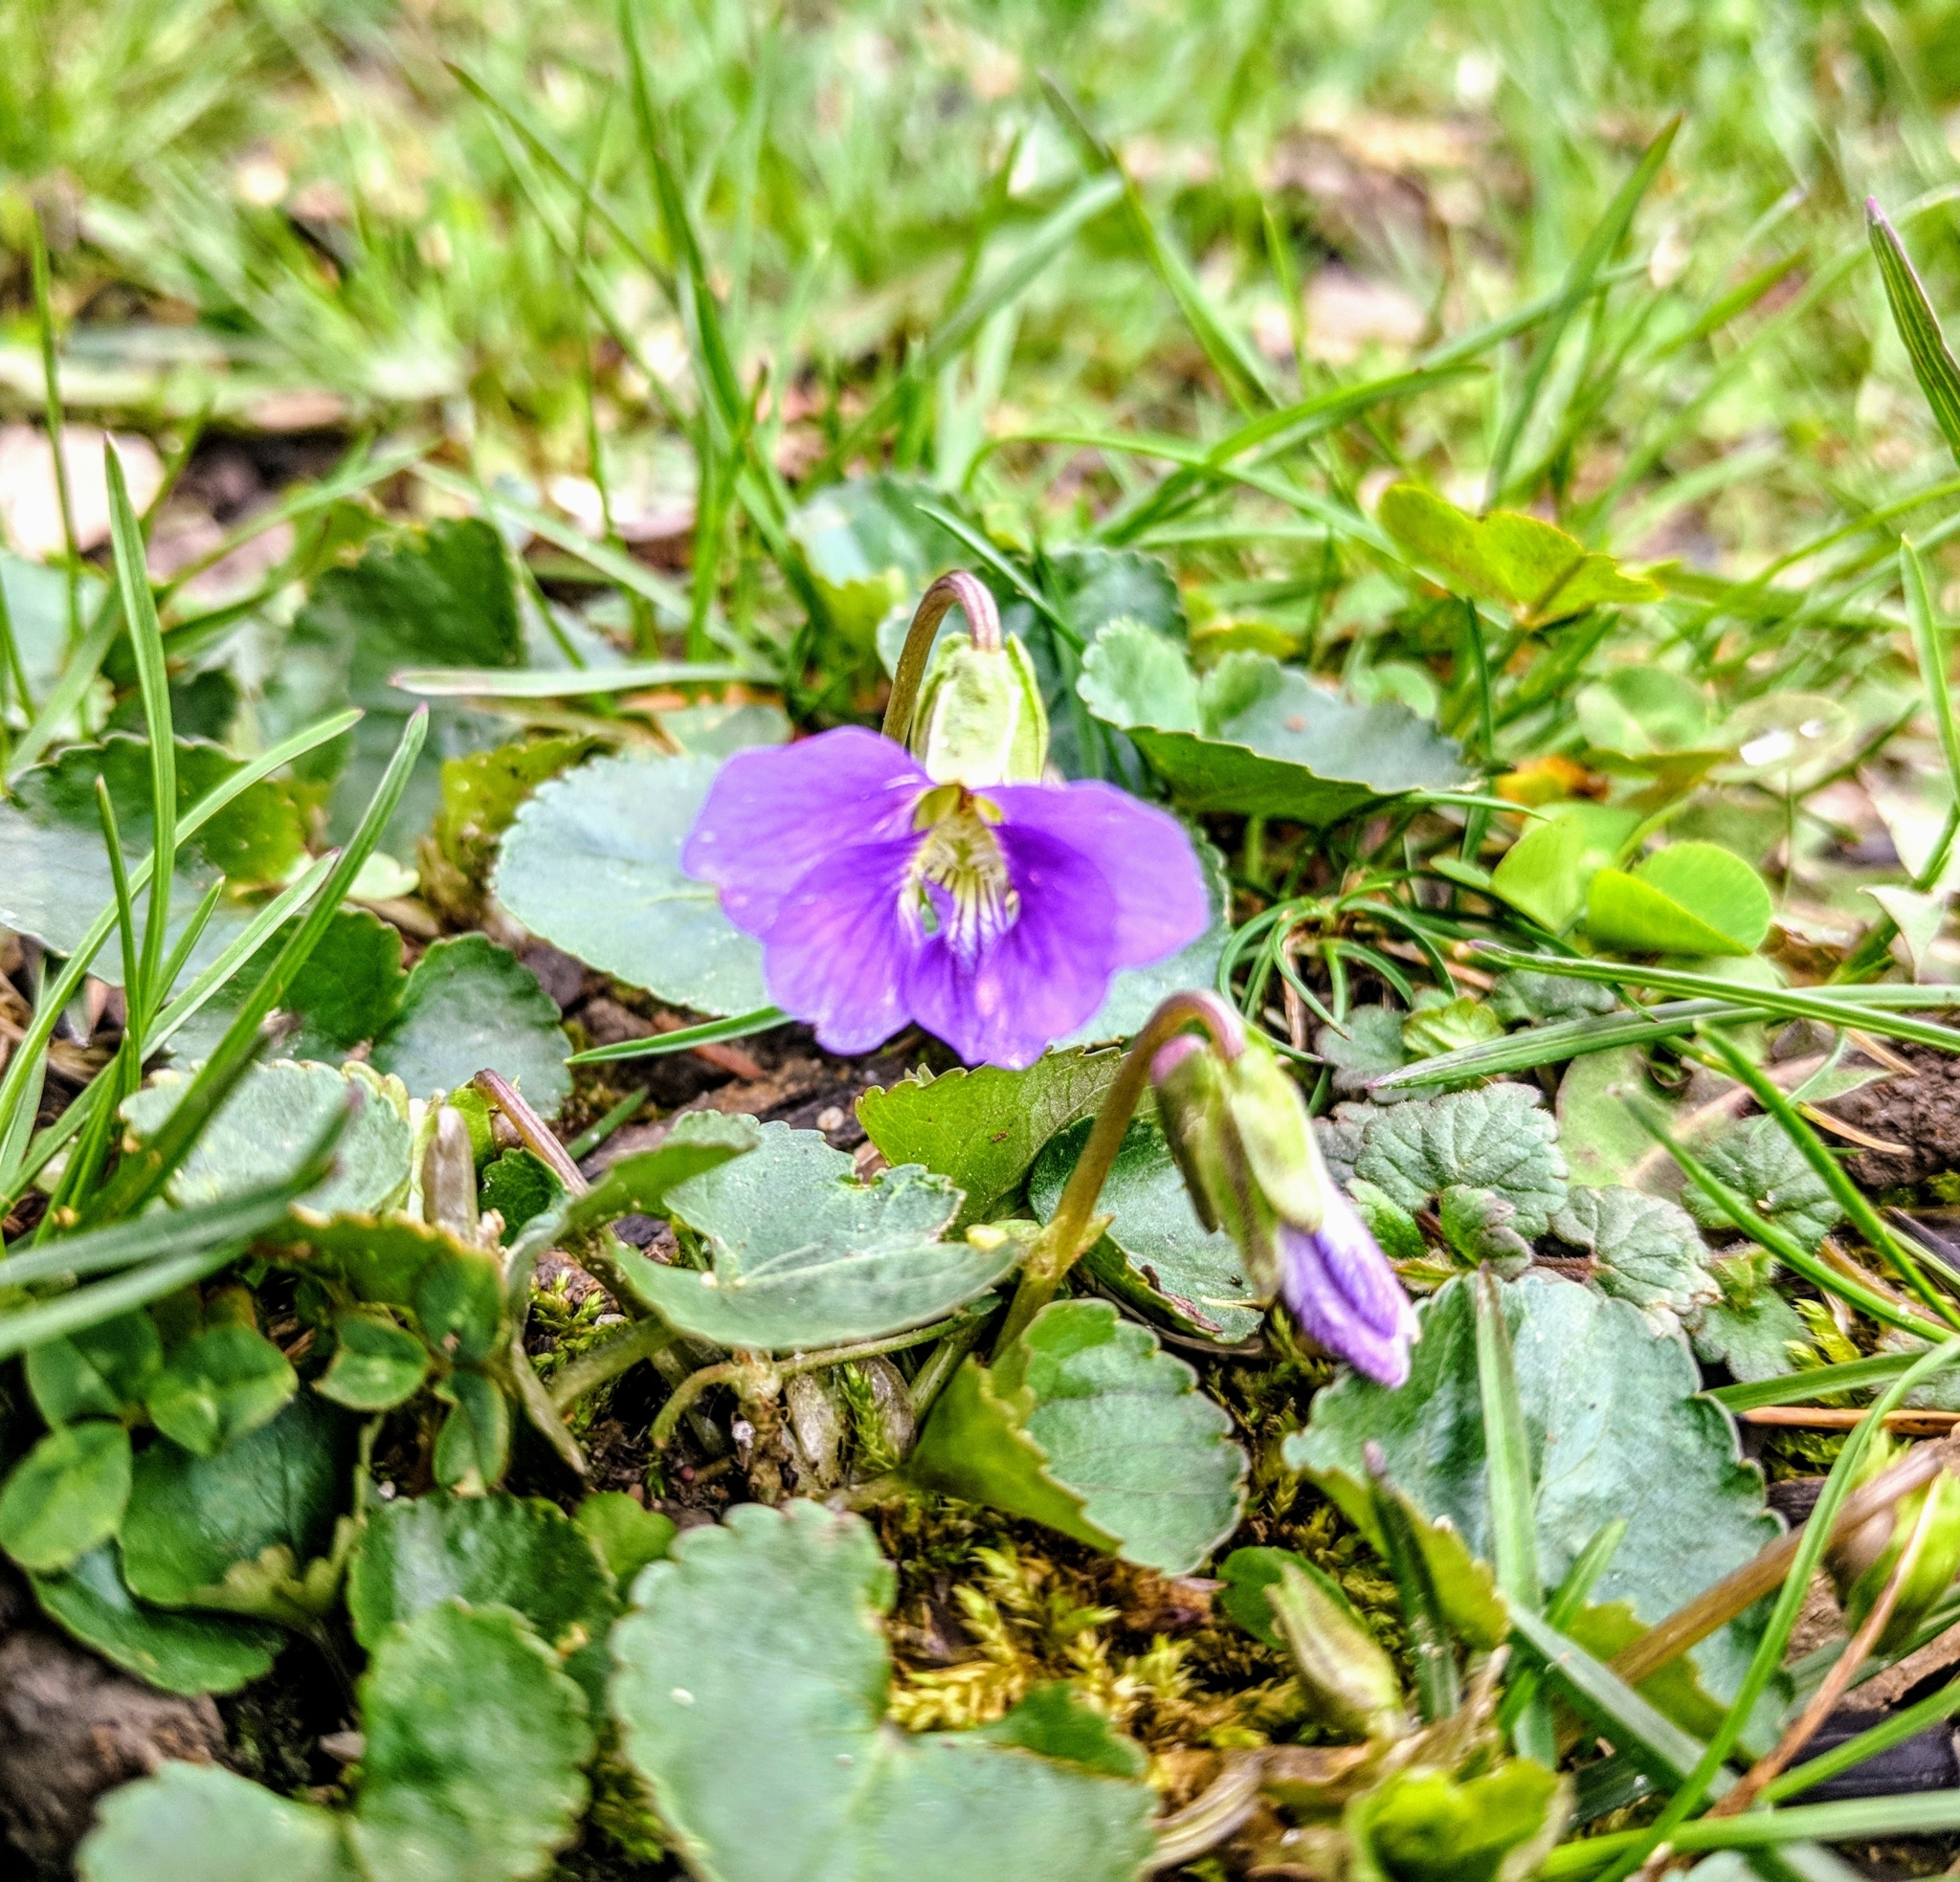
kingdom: Plantae
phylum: Tracheophyta
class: Magnoliopsida
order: Malpighiales
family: Violaceae
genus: Viola
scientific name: Viola sororia
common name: Dooryard violet
